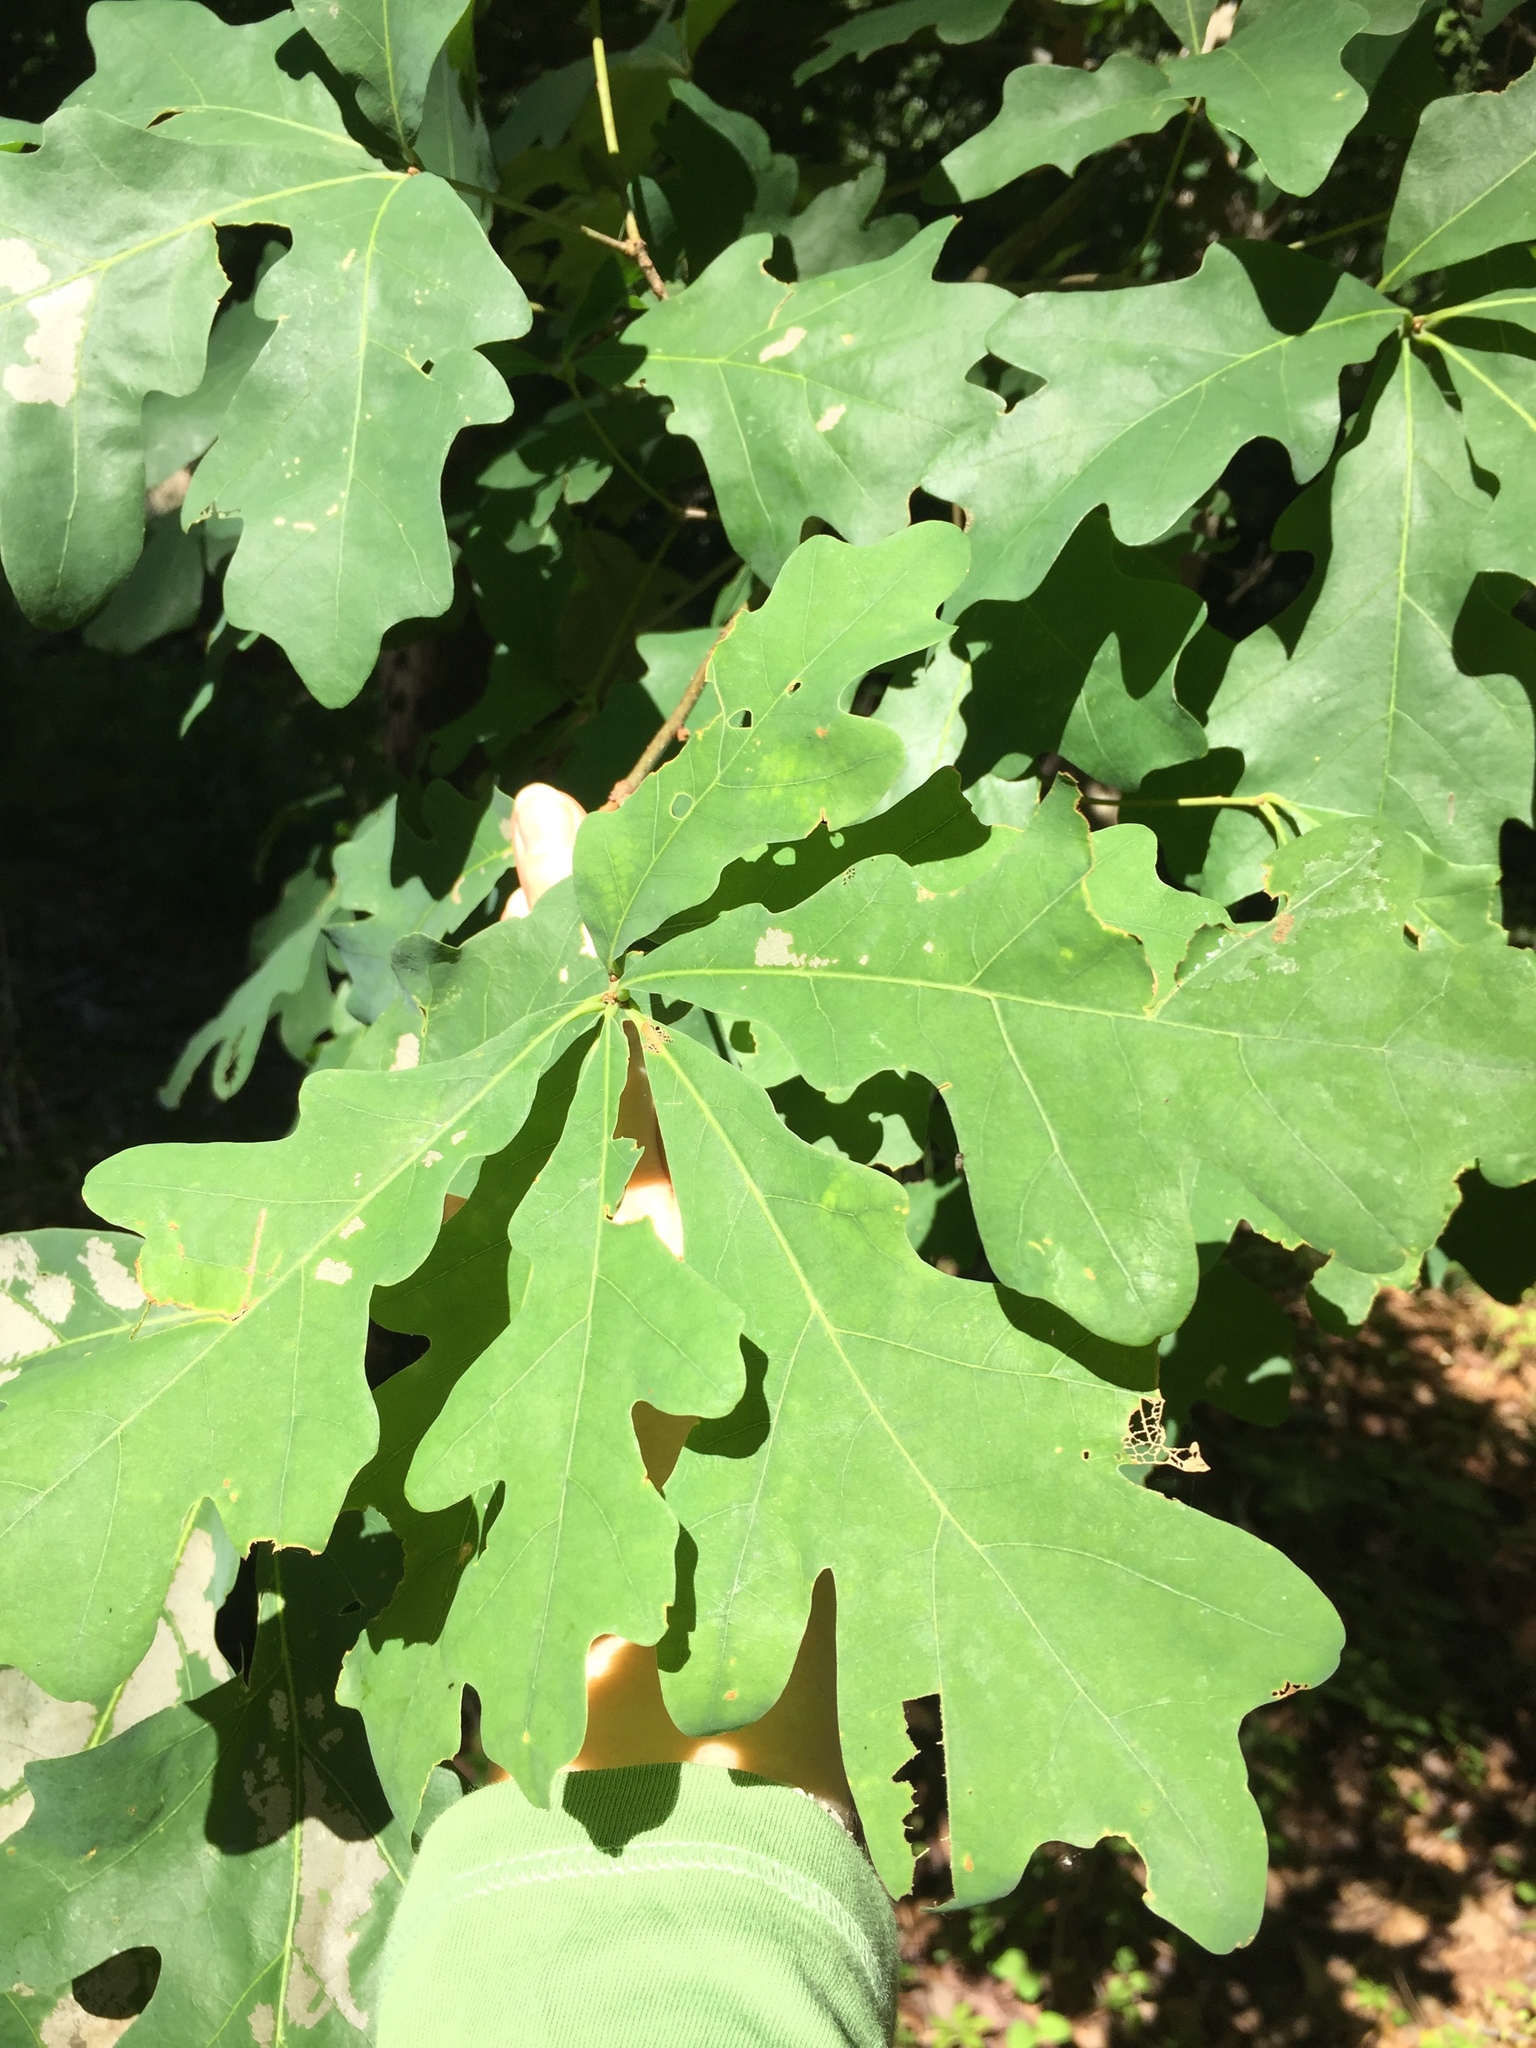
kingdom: Plantae
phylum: Tracheophyta
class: Magnoliopsida
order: Fagales
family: Fagaceae
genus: Quercus
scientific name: Quercus alba
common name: White oak
